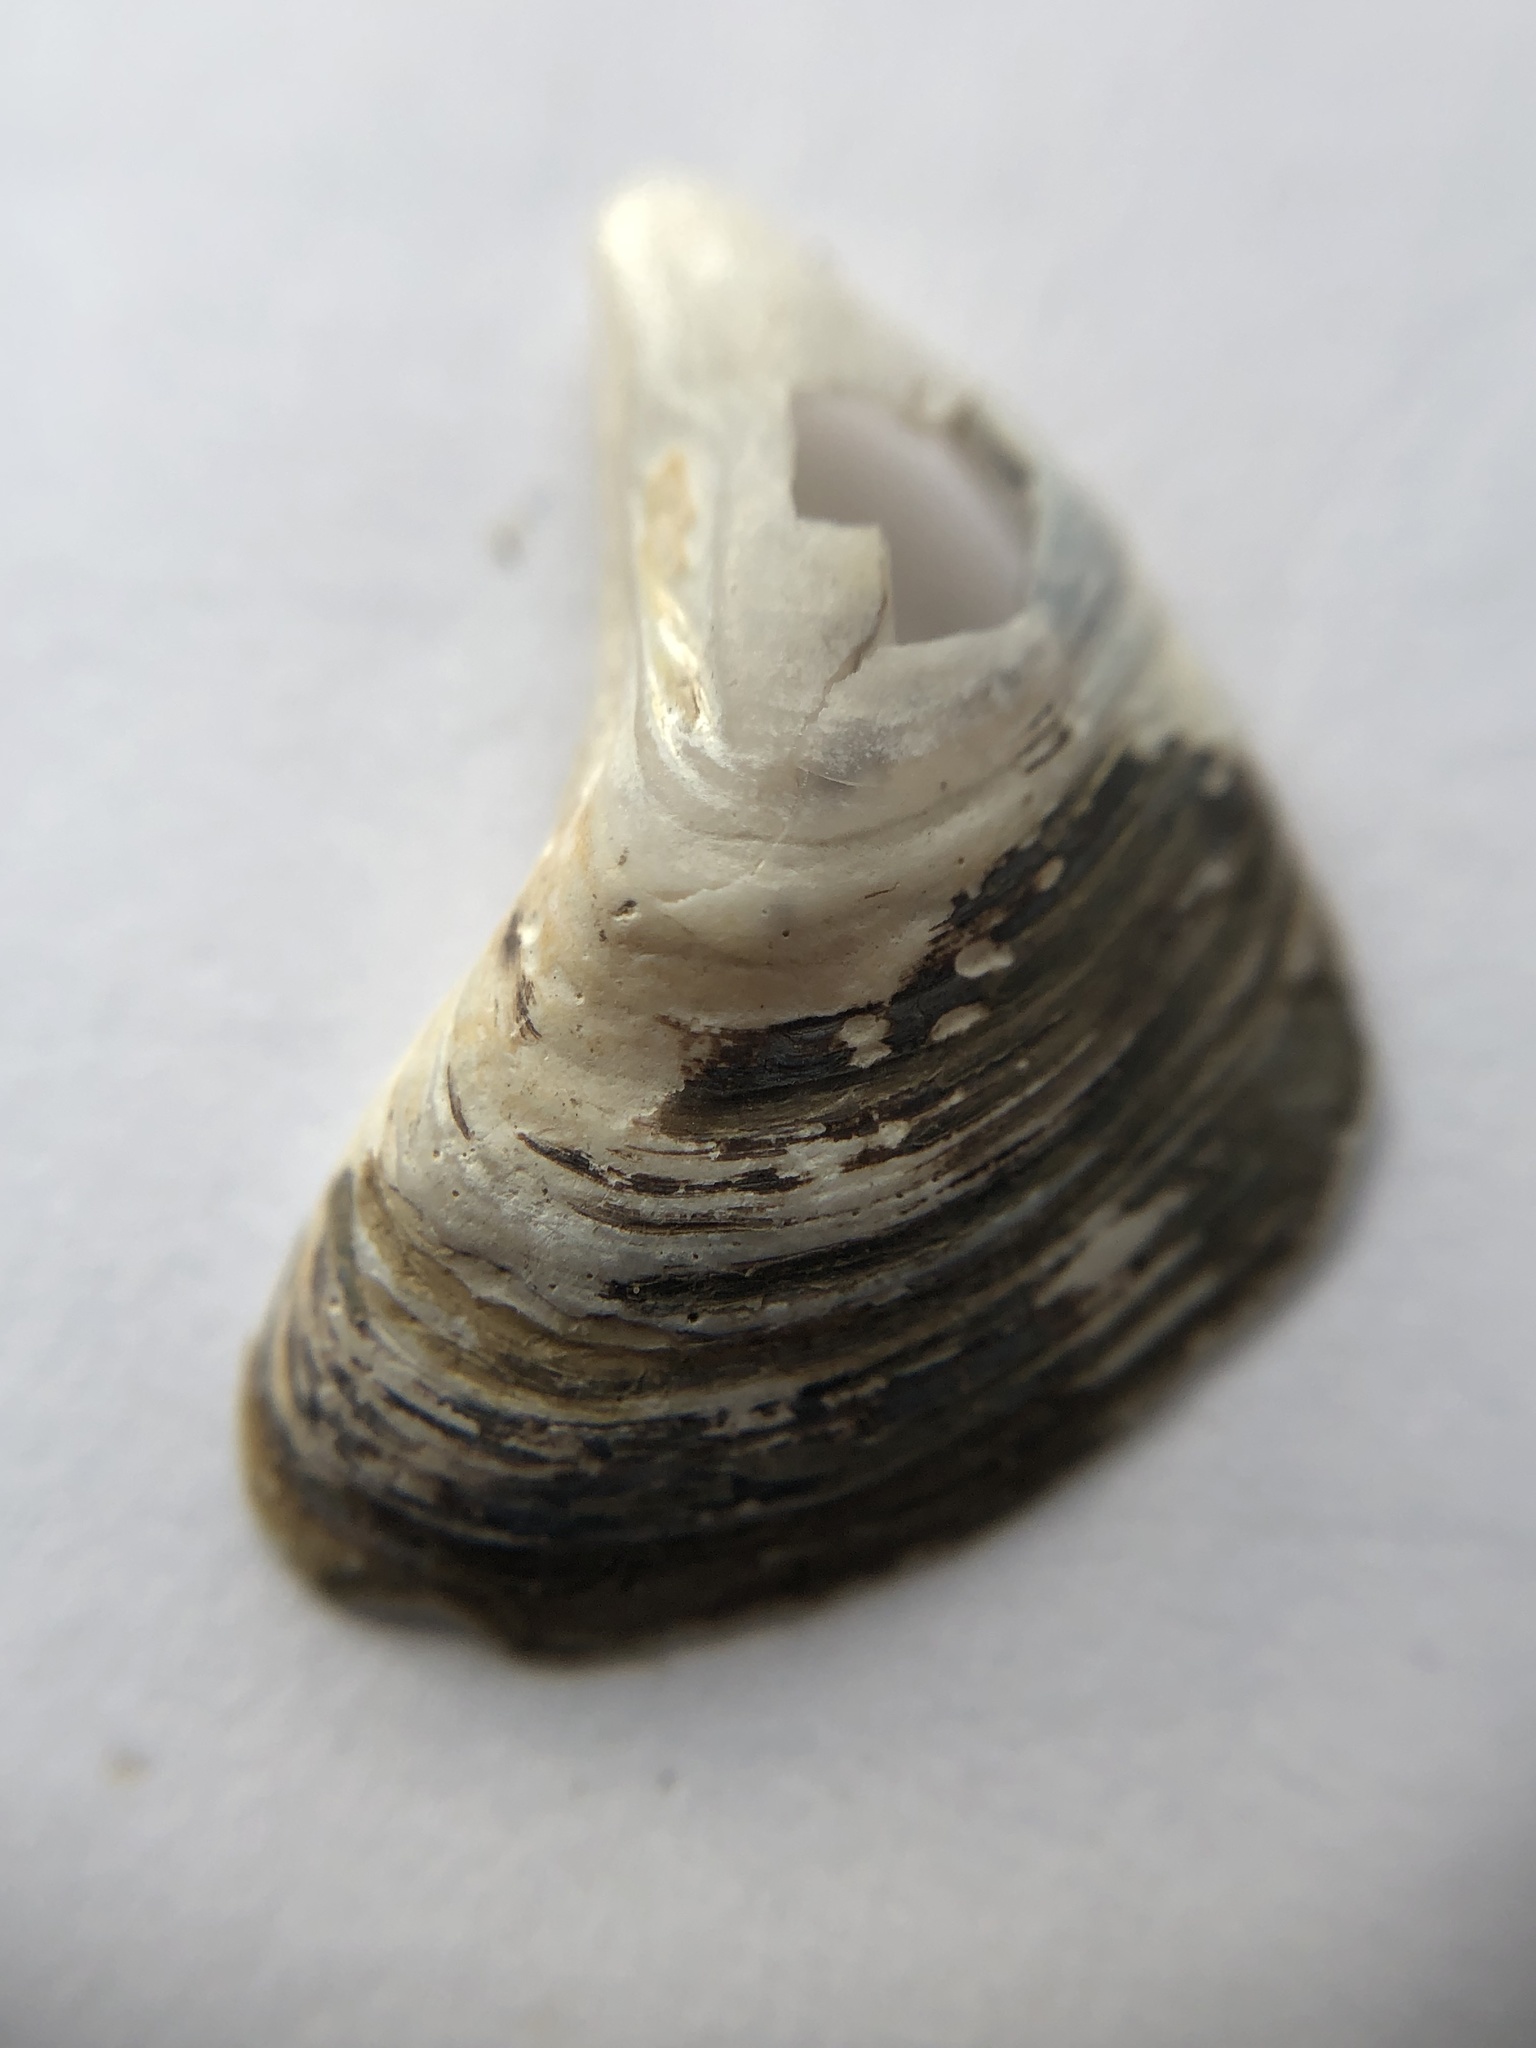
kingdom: Animalia
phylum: Mollusca
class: Bivalvia
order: Myida
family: Dreissenidae
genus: Dreissena
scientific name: Dreissena bugensis
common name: Quagga mussel
